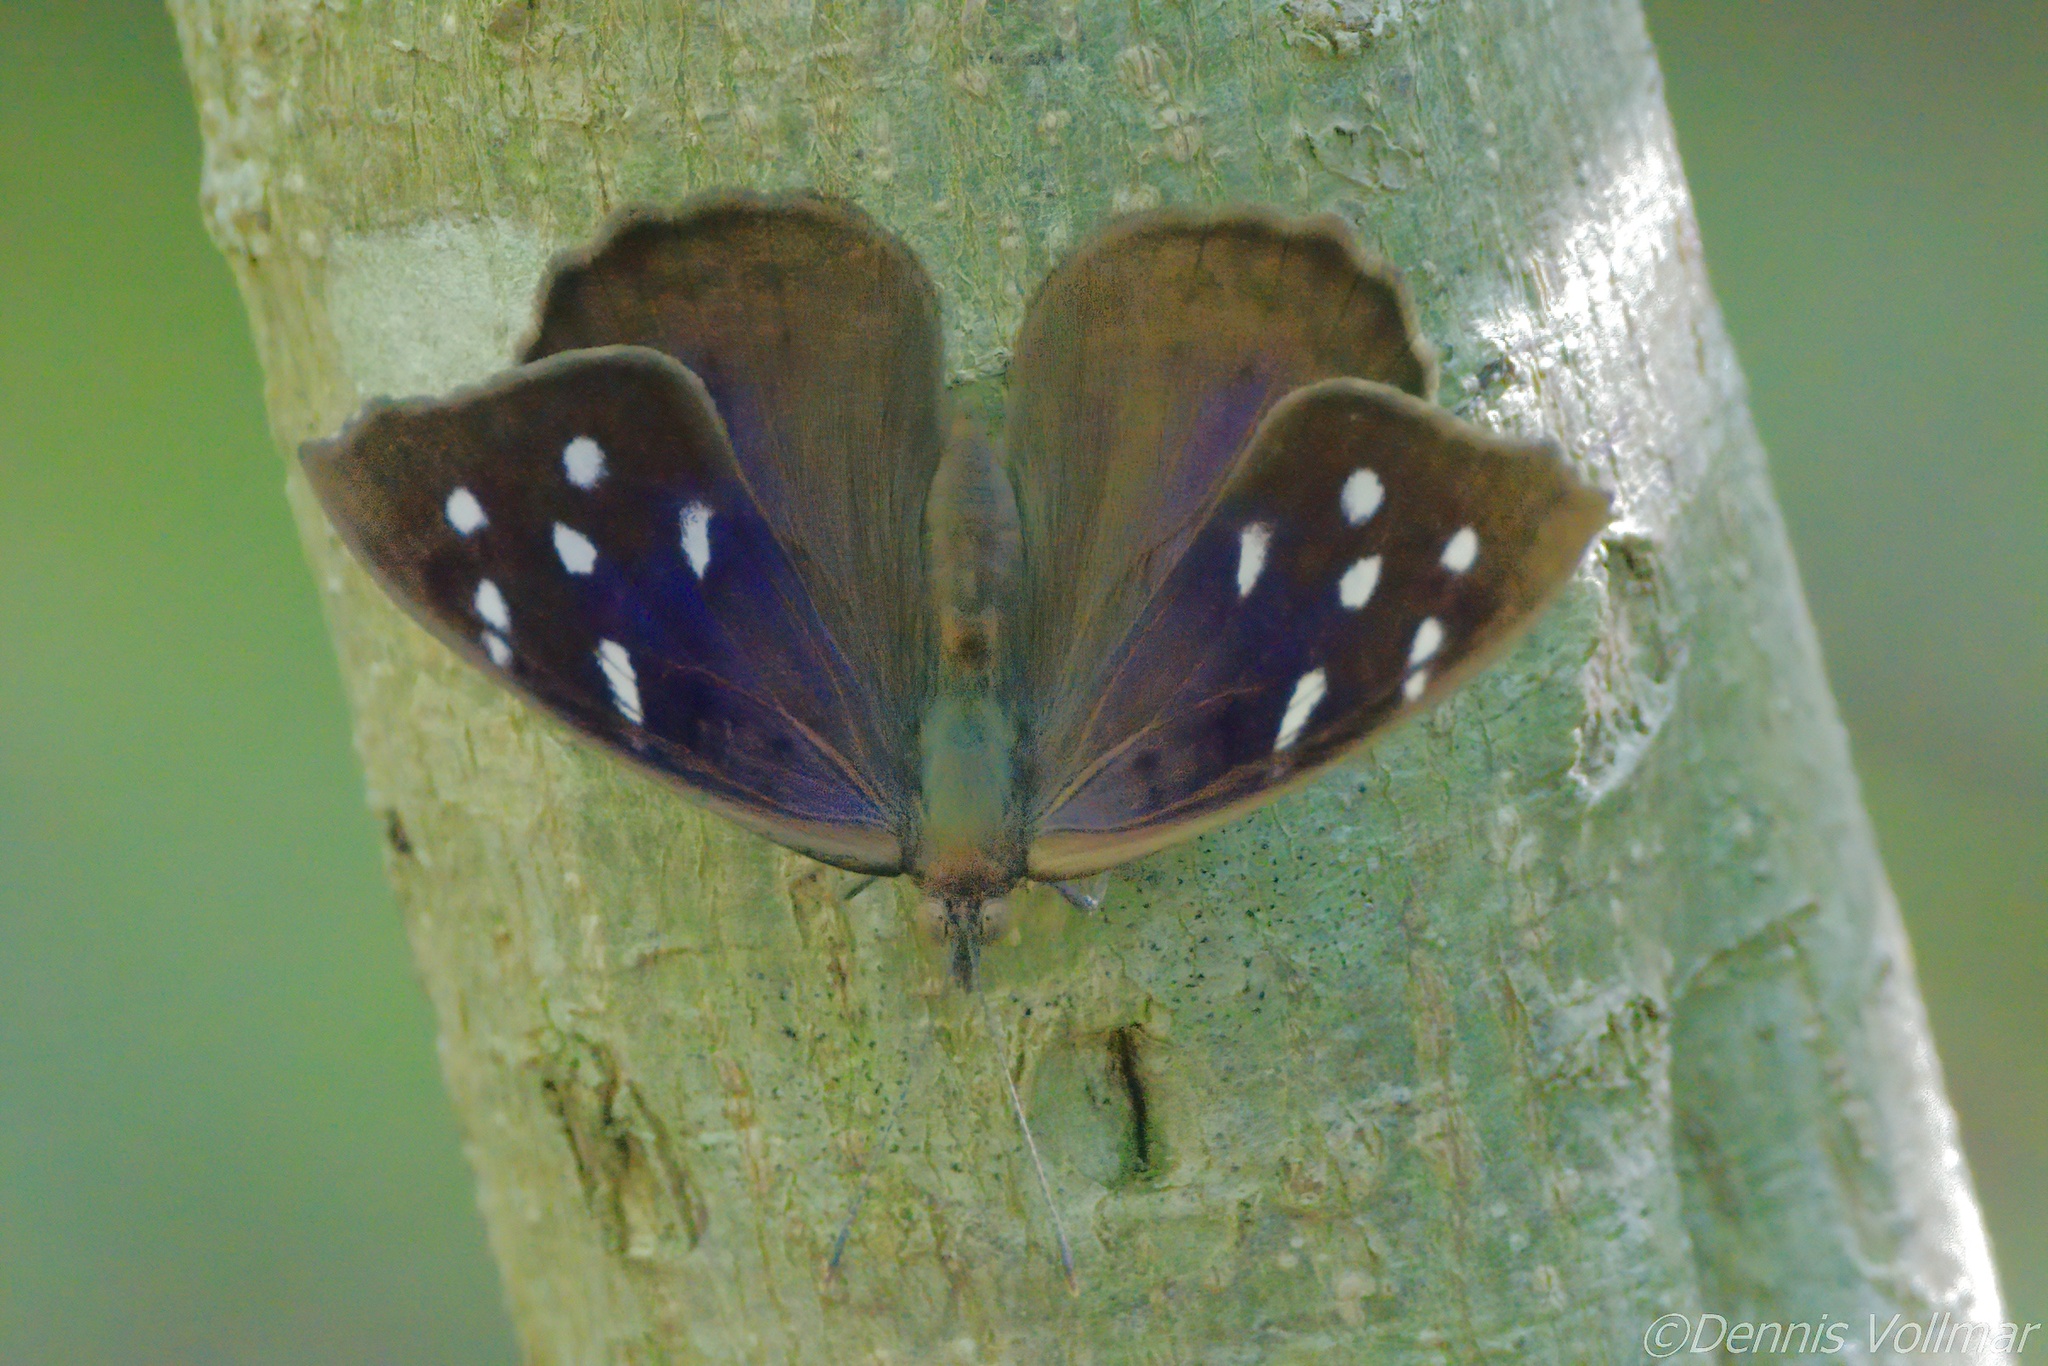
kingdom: Animalia
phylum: Arthropoda
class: Insecta
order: Lepidoptera
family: Nymphalidae
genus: Eunica
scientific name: Eunica tatila
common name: Florida purplewing
